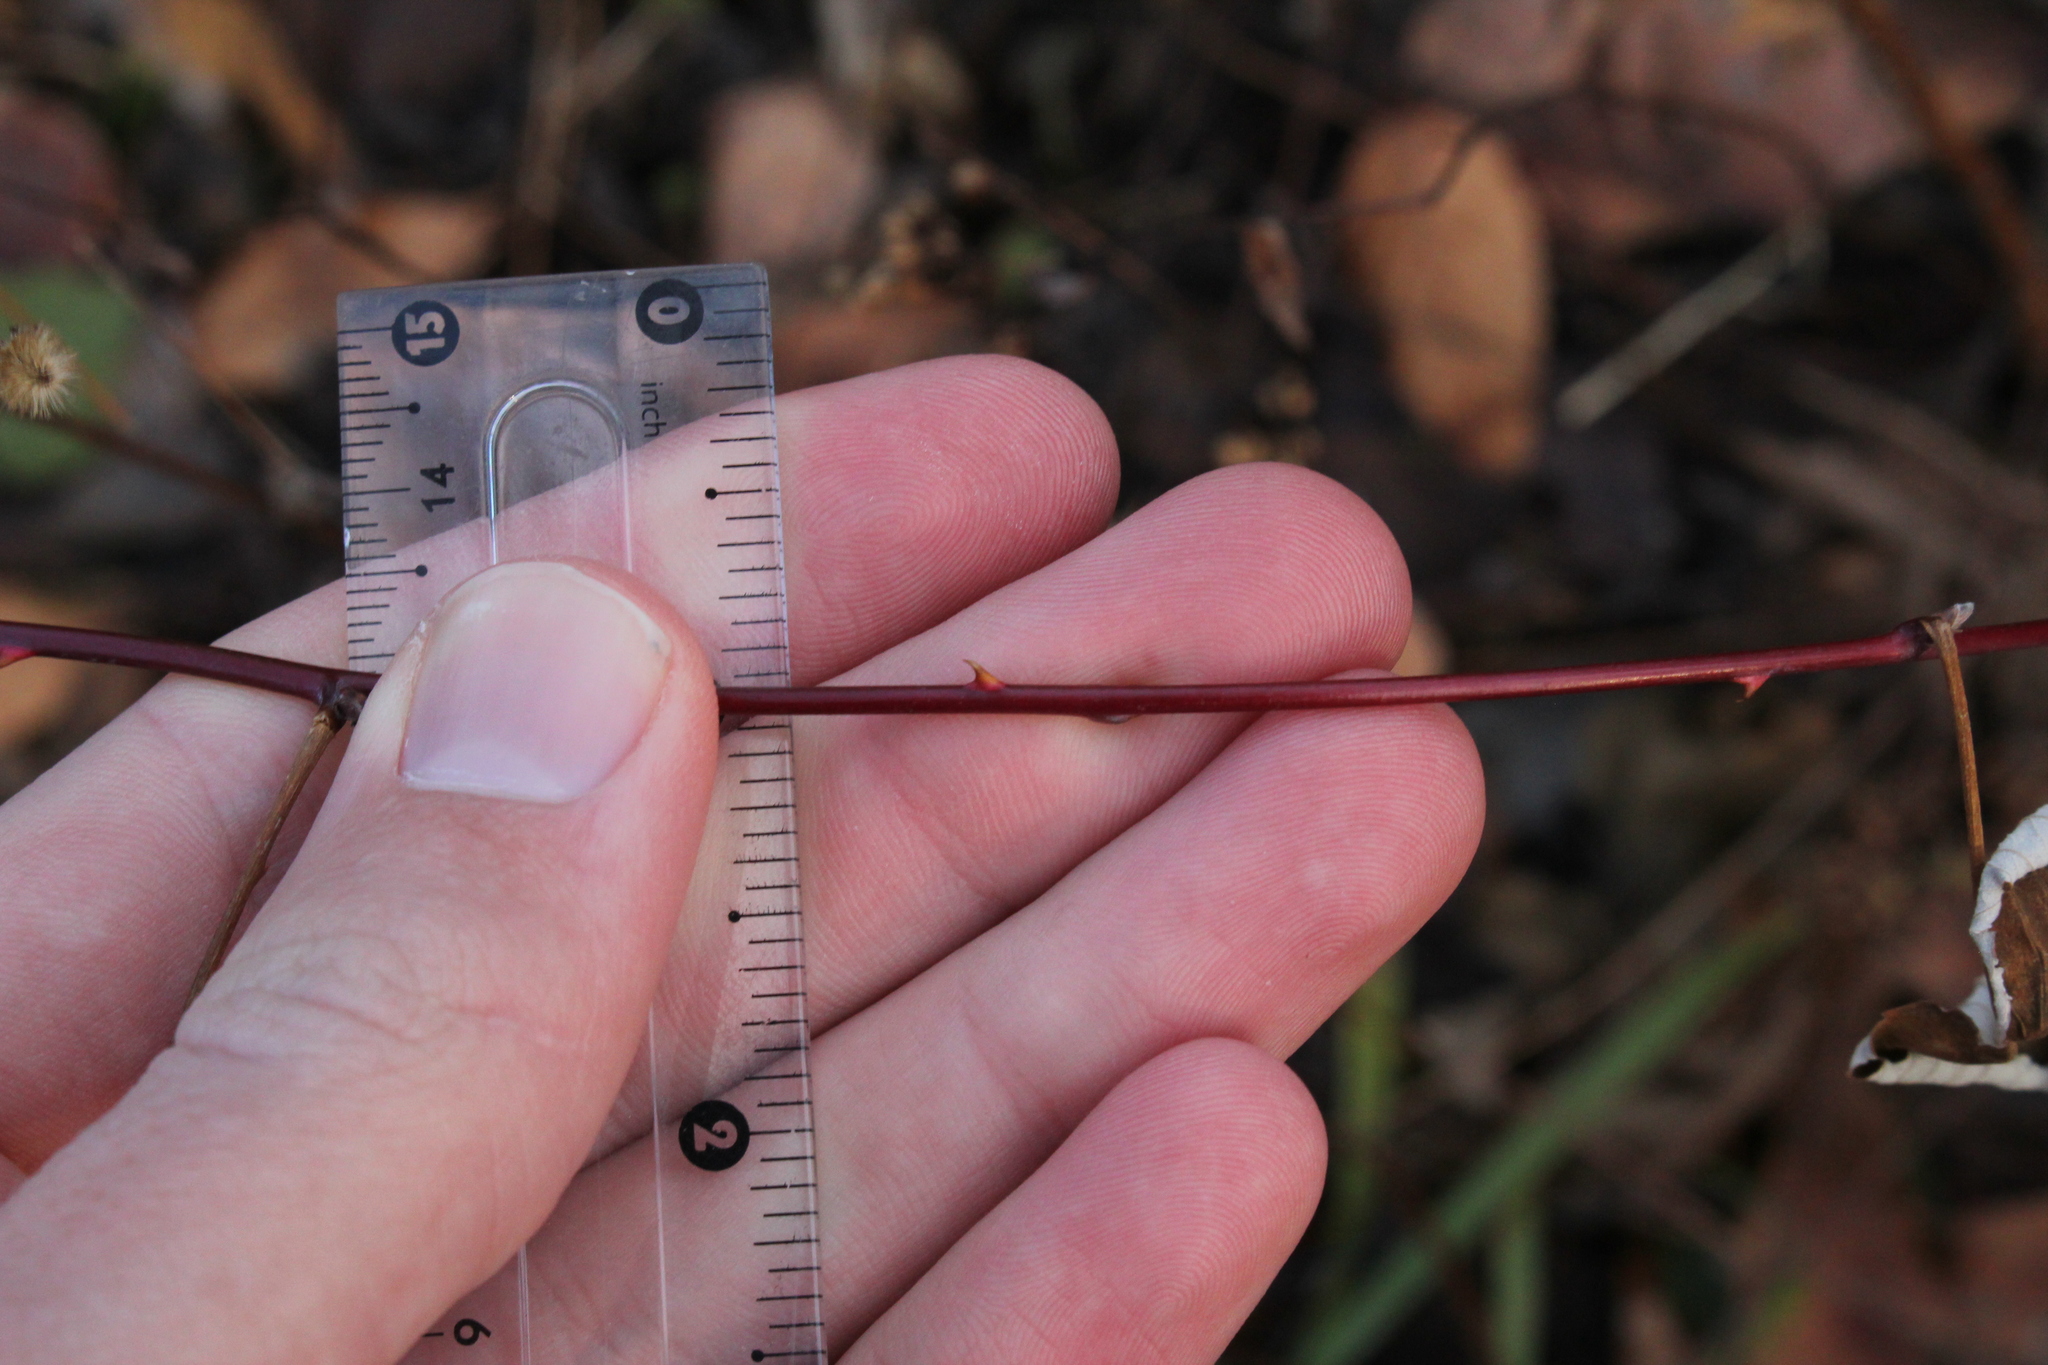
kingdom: Plantae
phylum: Tracheophyta
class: Magnoliopsida
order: Rosales
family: Rosaceae
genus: Rubus
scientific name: Rubus occidentalis
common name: Black raspberry
